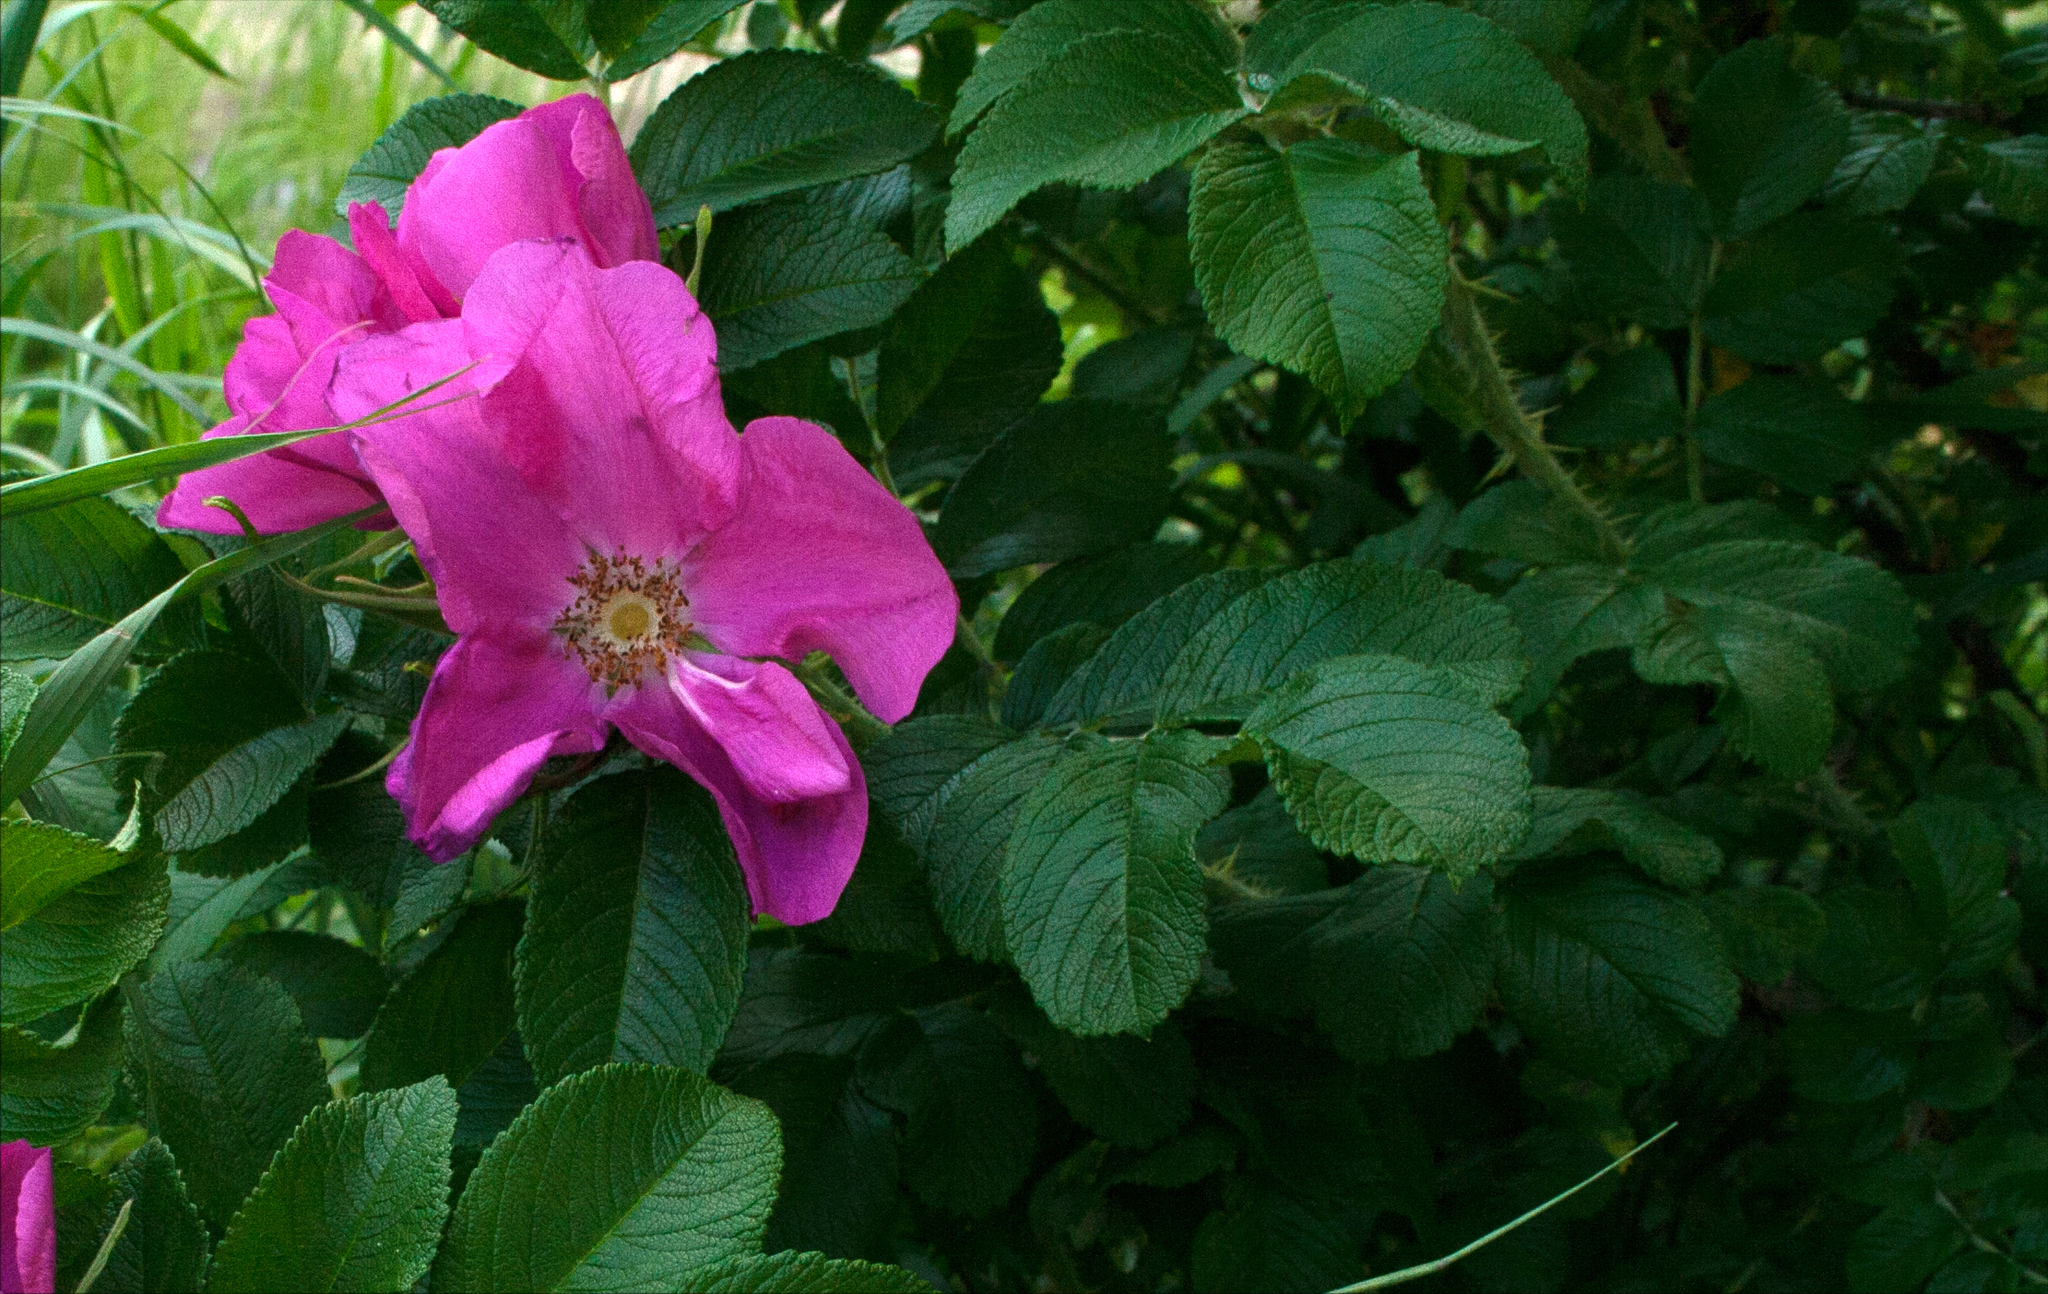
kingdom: Plantae
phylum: Tracheophyta
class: Magnoliopsida
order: Rosales
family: Rosaceae
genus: Rosa
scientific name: Rosa rugosa
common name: Japanese rose
